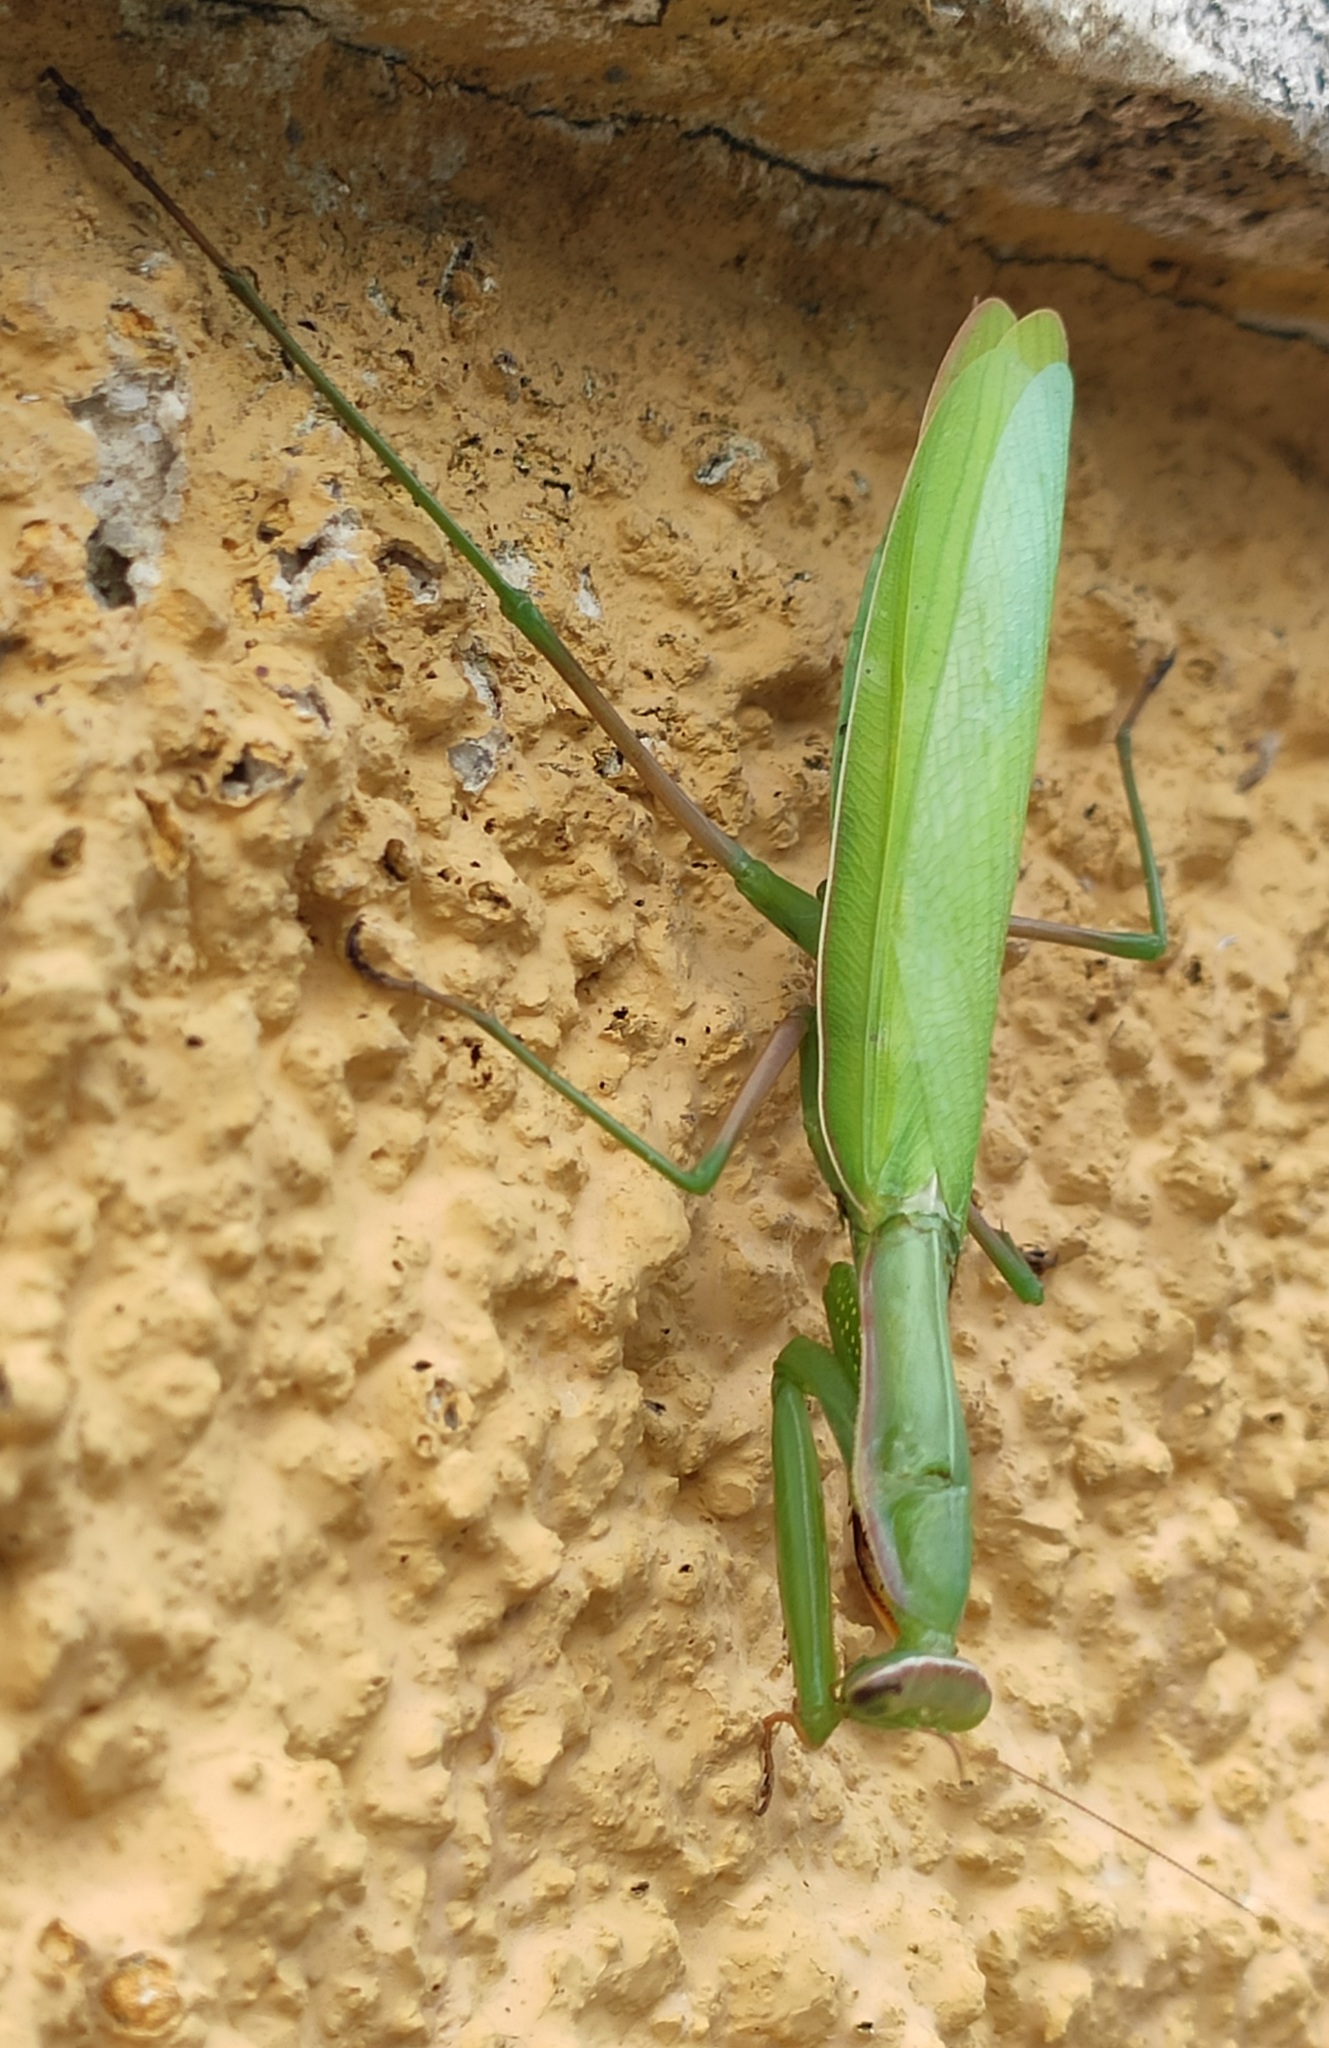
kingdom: Animalia
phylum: Arthropoda
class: Insecta
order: Mantodea
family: Mantidae
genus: Mantis
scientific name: Mantis religiosa
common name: Praying mantis
